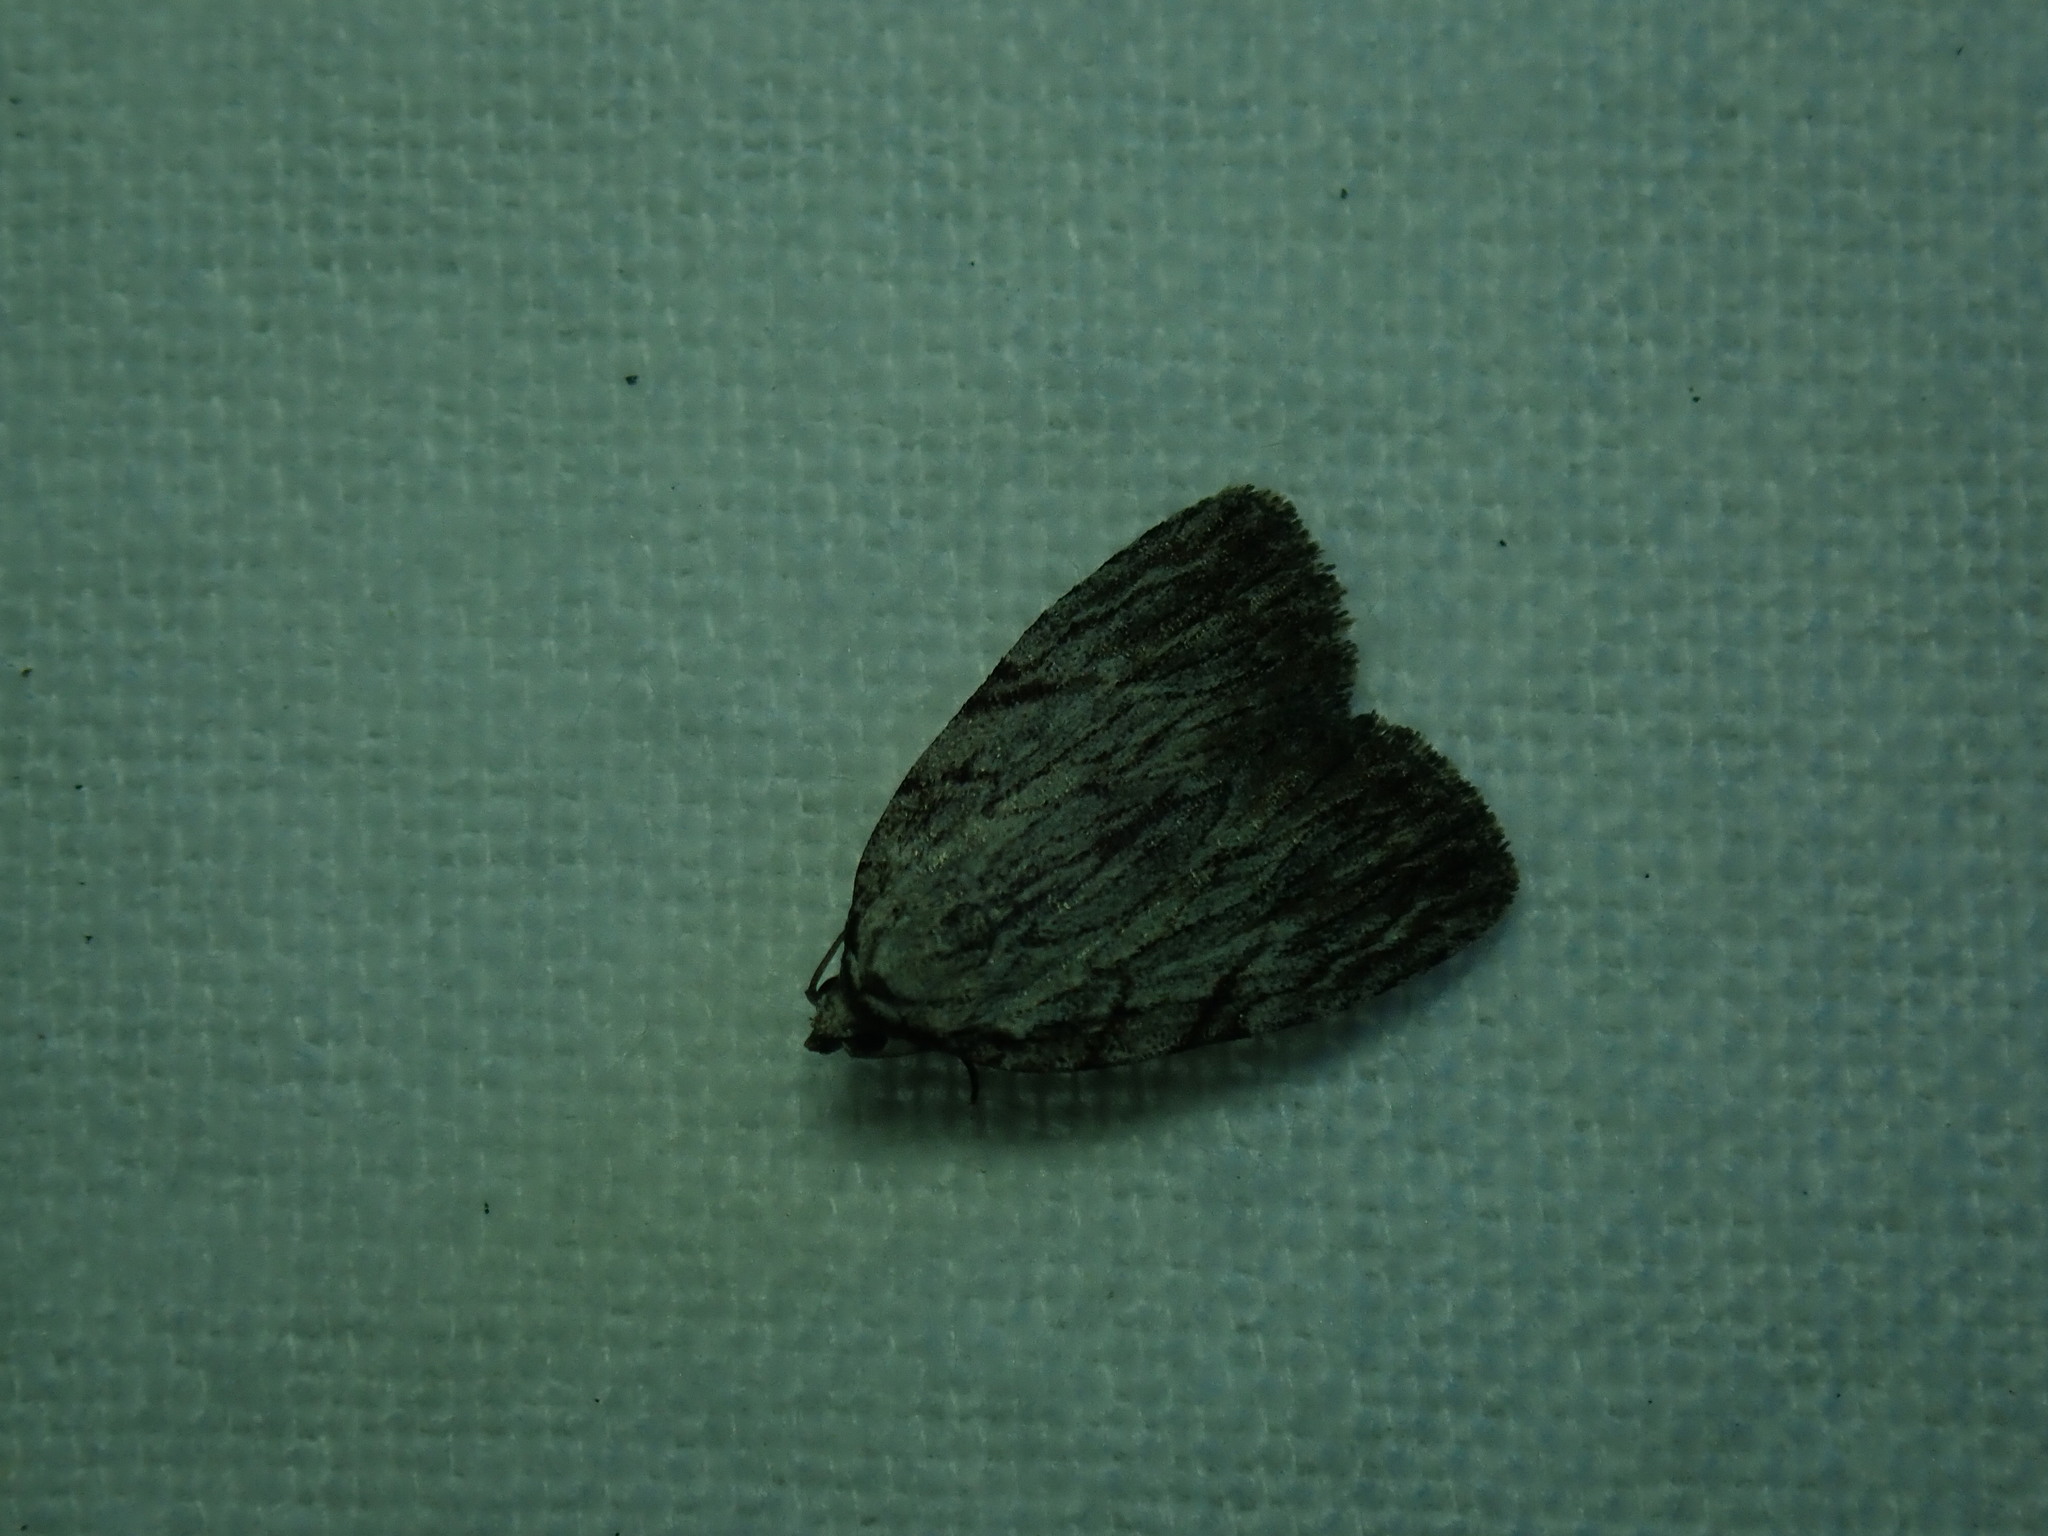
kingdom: Animalia
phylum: Arthropoda
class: Insecta
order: Lepidoptera
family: Noctuidae
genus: Balsa
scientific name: Balsa tristrigella
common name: Three-lined balsa moth
